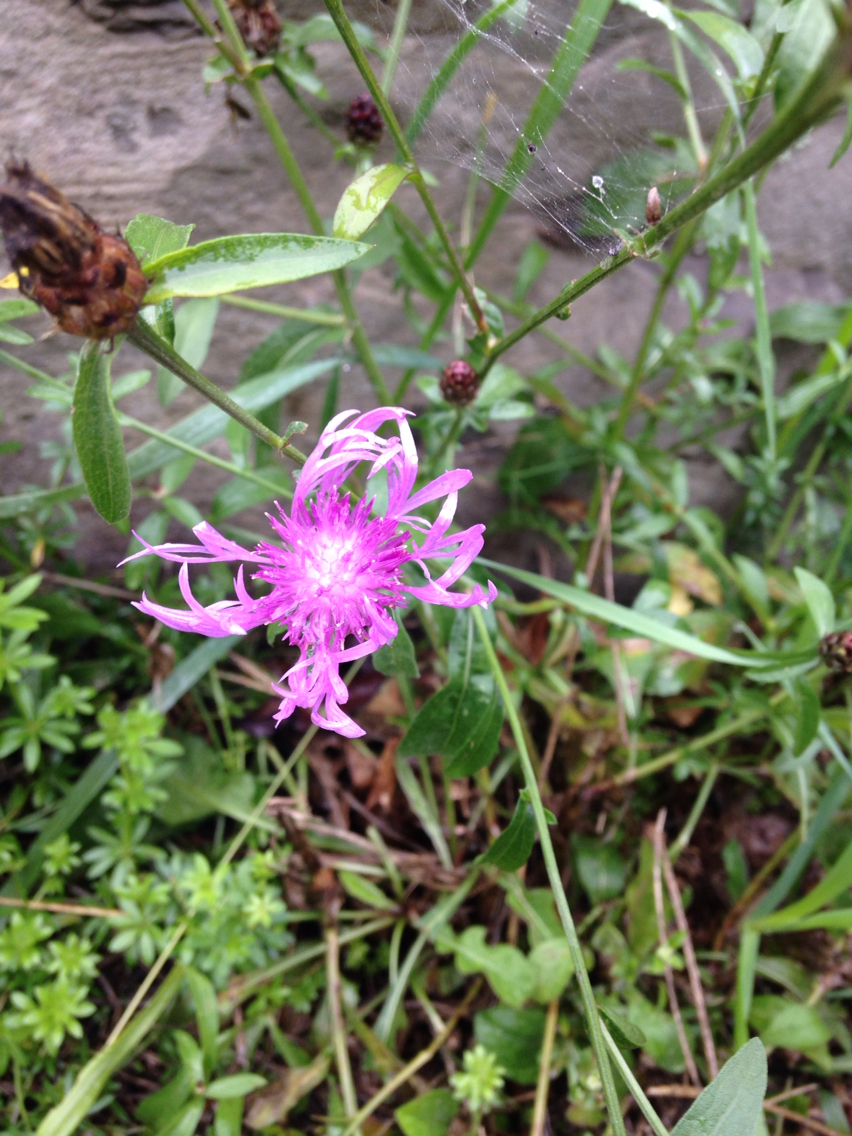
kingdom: Plantae
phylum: Tracheophyta
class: Magnoliopsida
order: Asterales
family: Asteraceae
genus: Centaurea
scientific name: Centaurea stoebe
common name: Spotted knapweed
